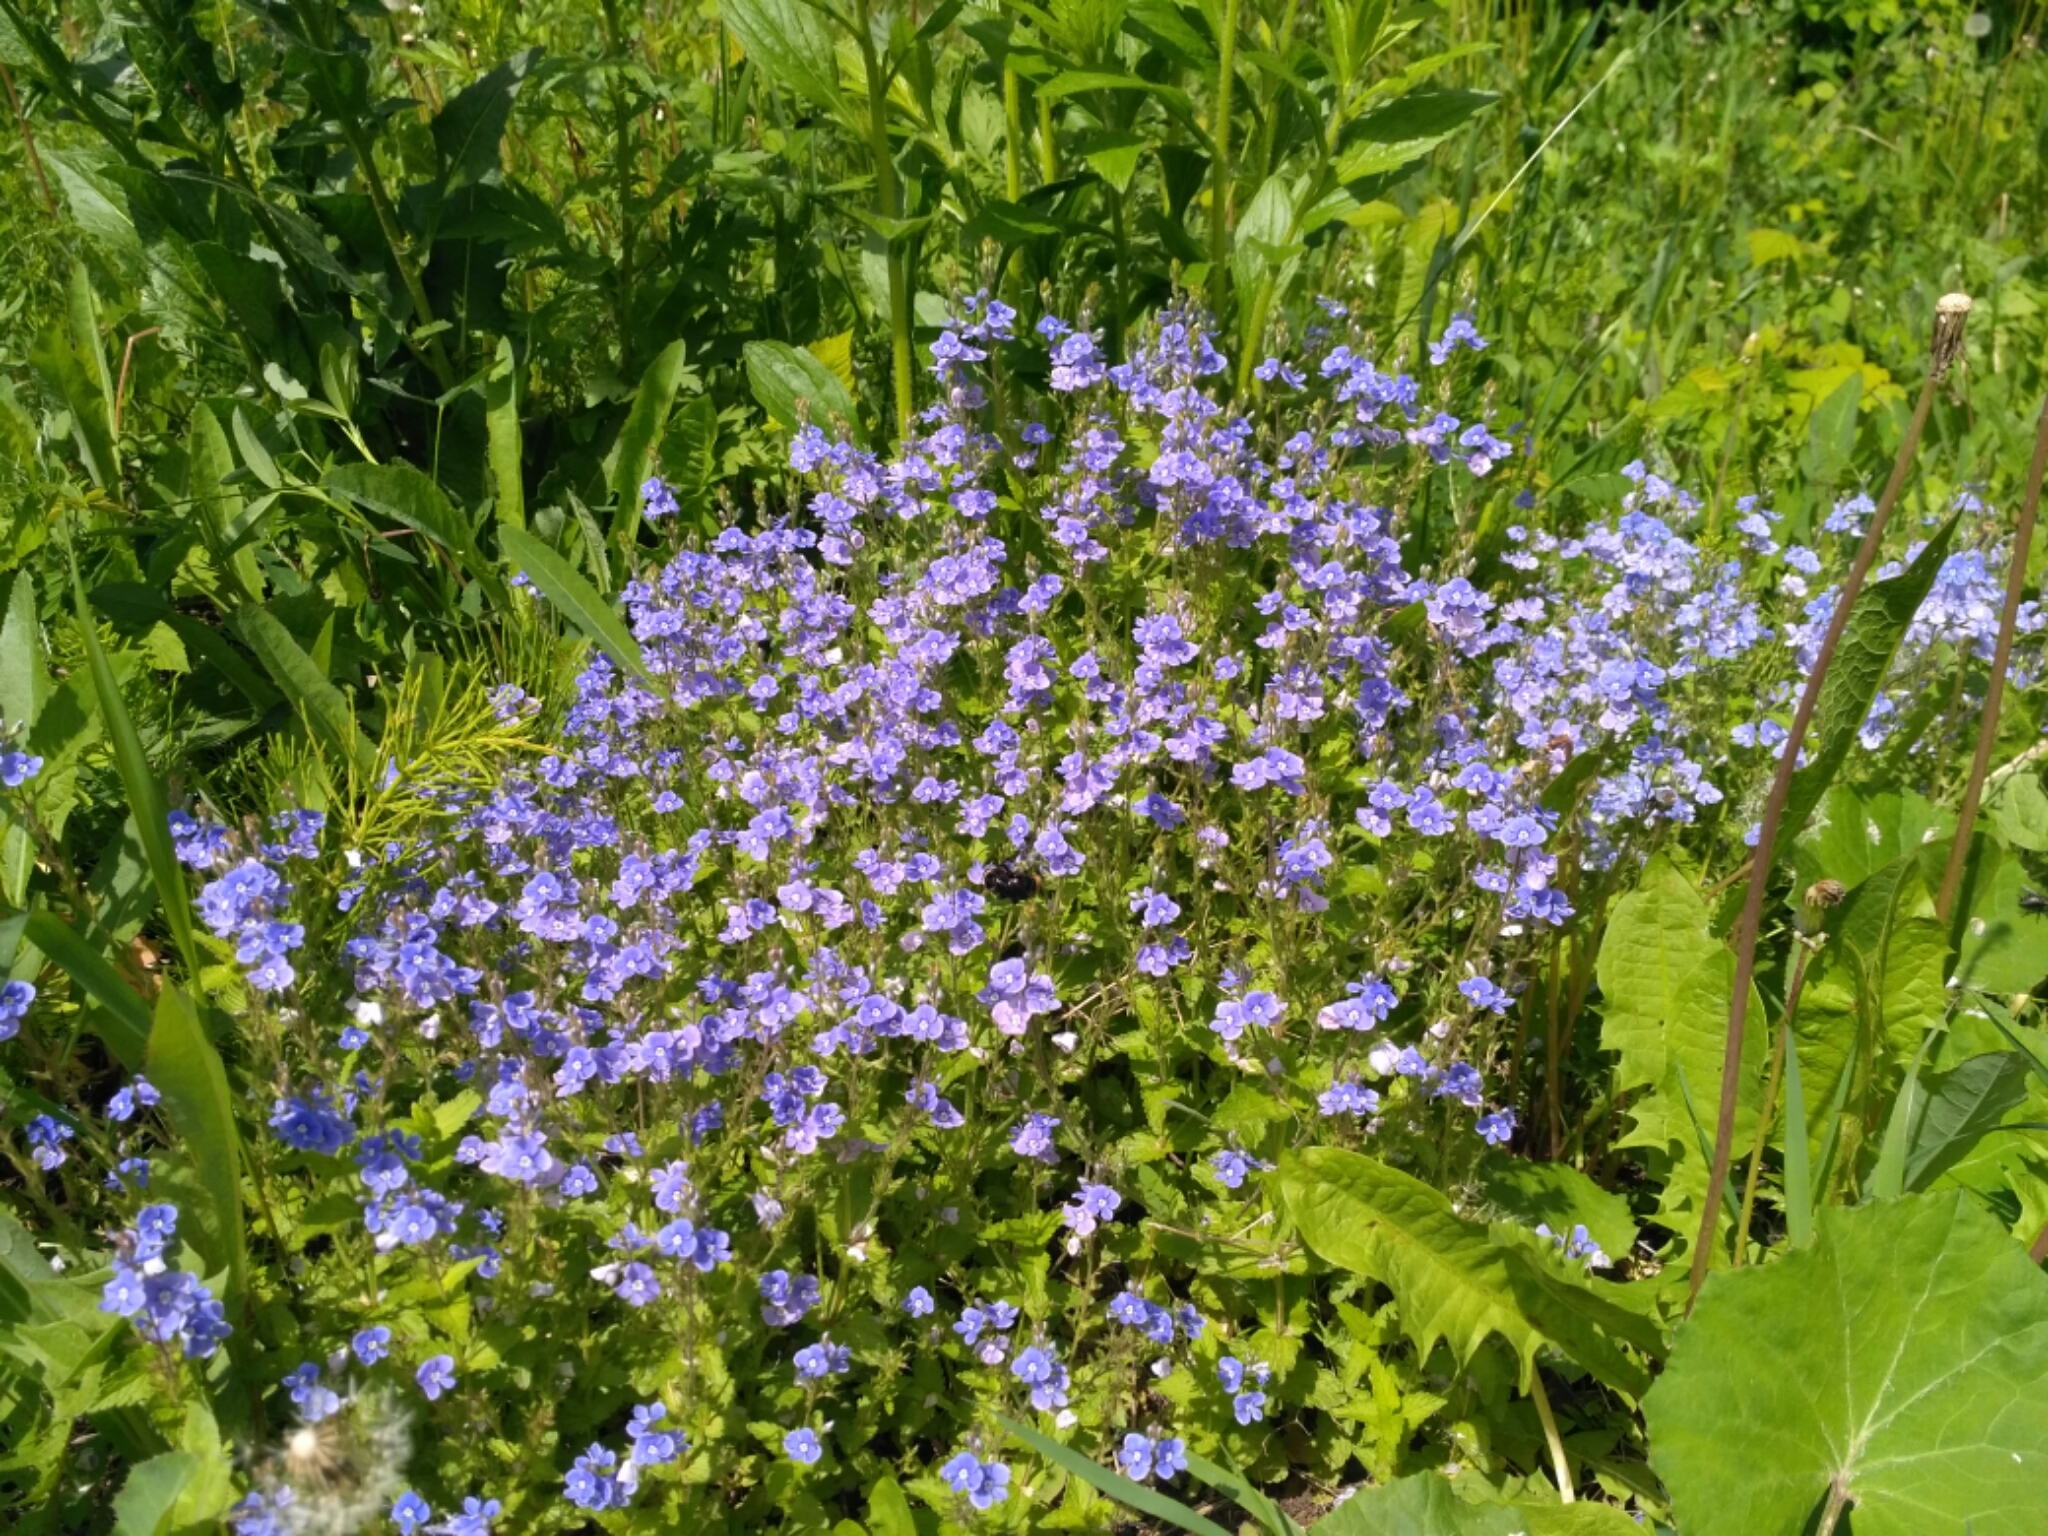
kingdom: Plantae
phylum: Tracheophyta
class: Magnoliopsida
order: Lamiales
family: Plantaginaceae
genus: Veronica
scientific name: Veronica chamaedrys
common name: Germander speedwell
